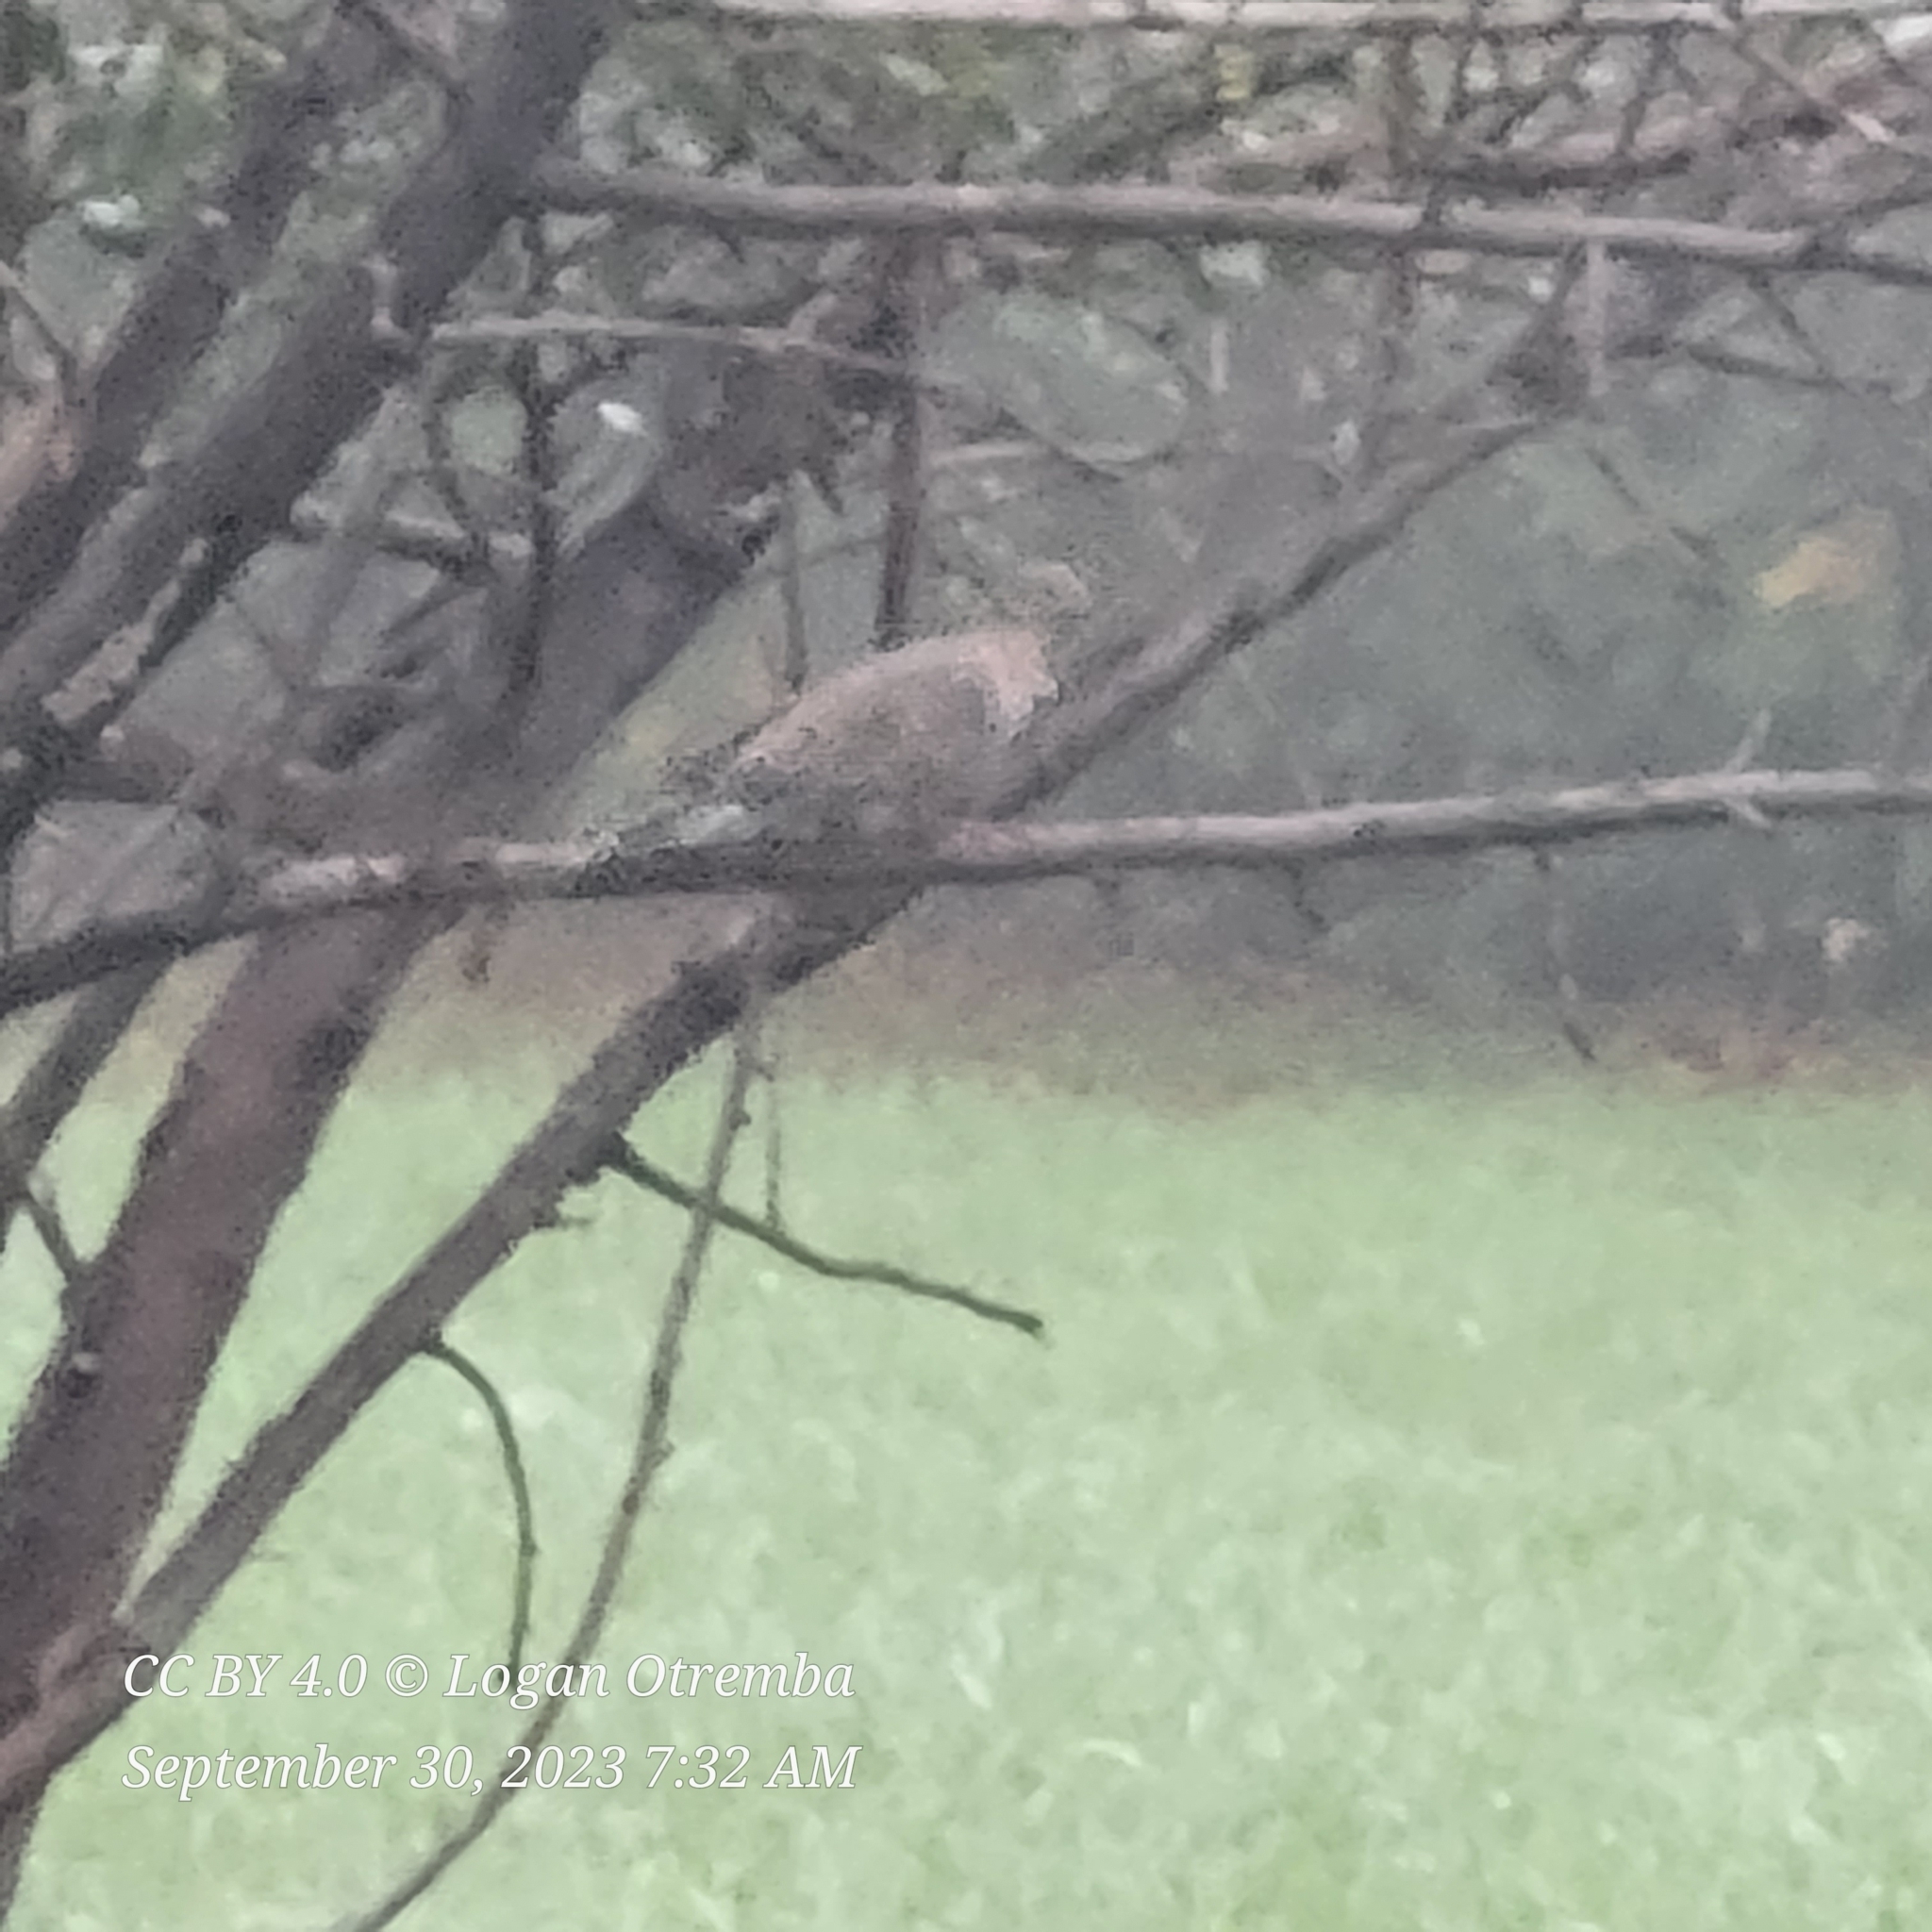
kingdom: Animalia
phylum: Chordata
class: Aves
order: Columbiformes
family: Columbidae
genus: Zenaida
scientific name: Zenaida macroura
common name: Mourning dove
